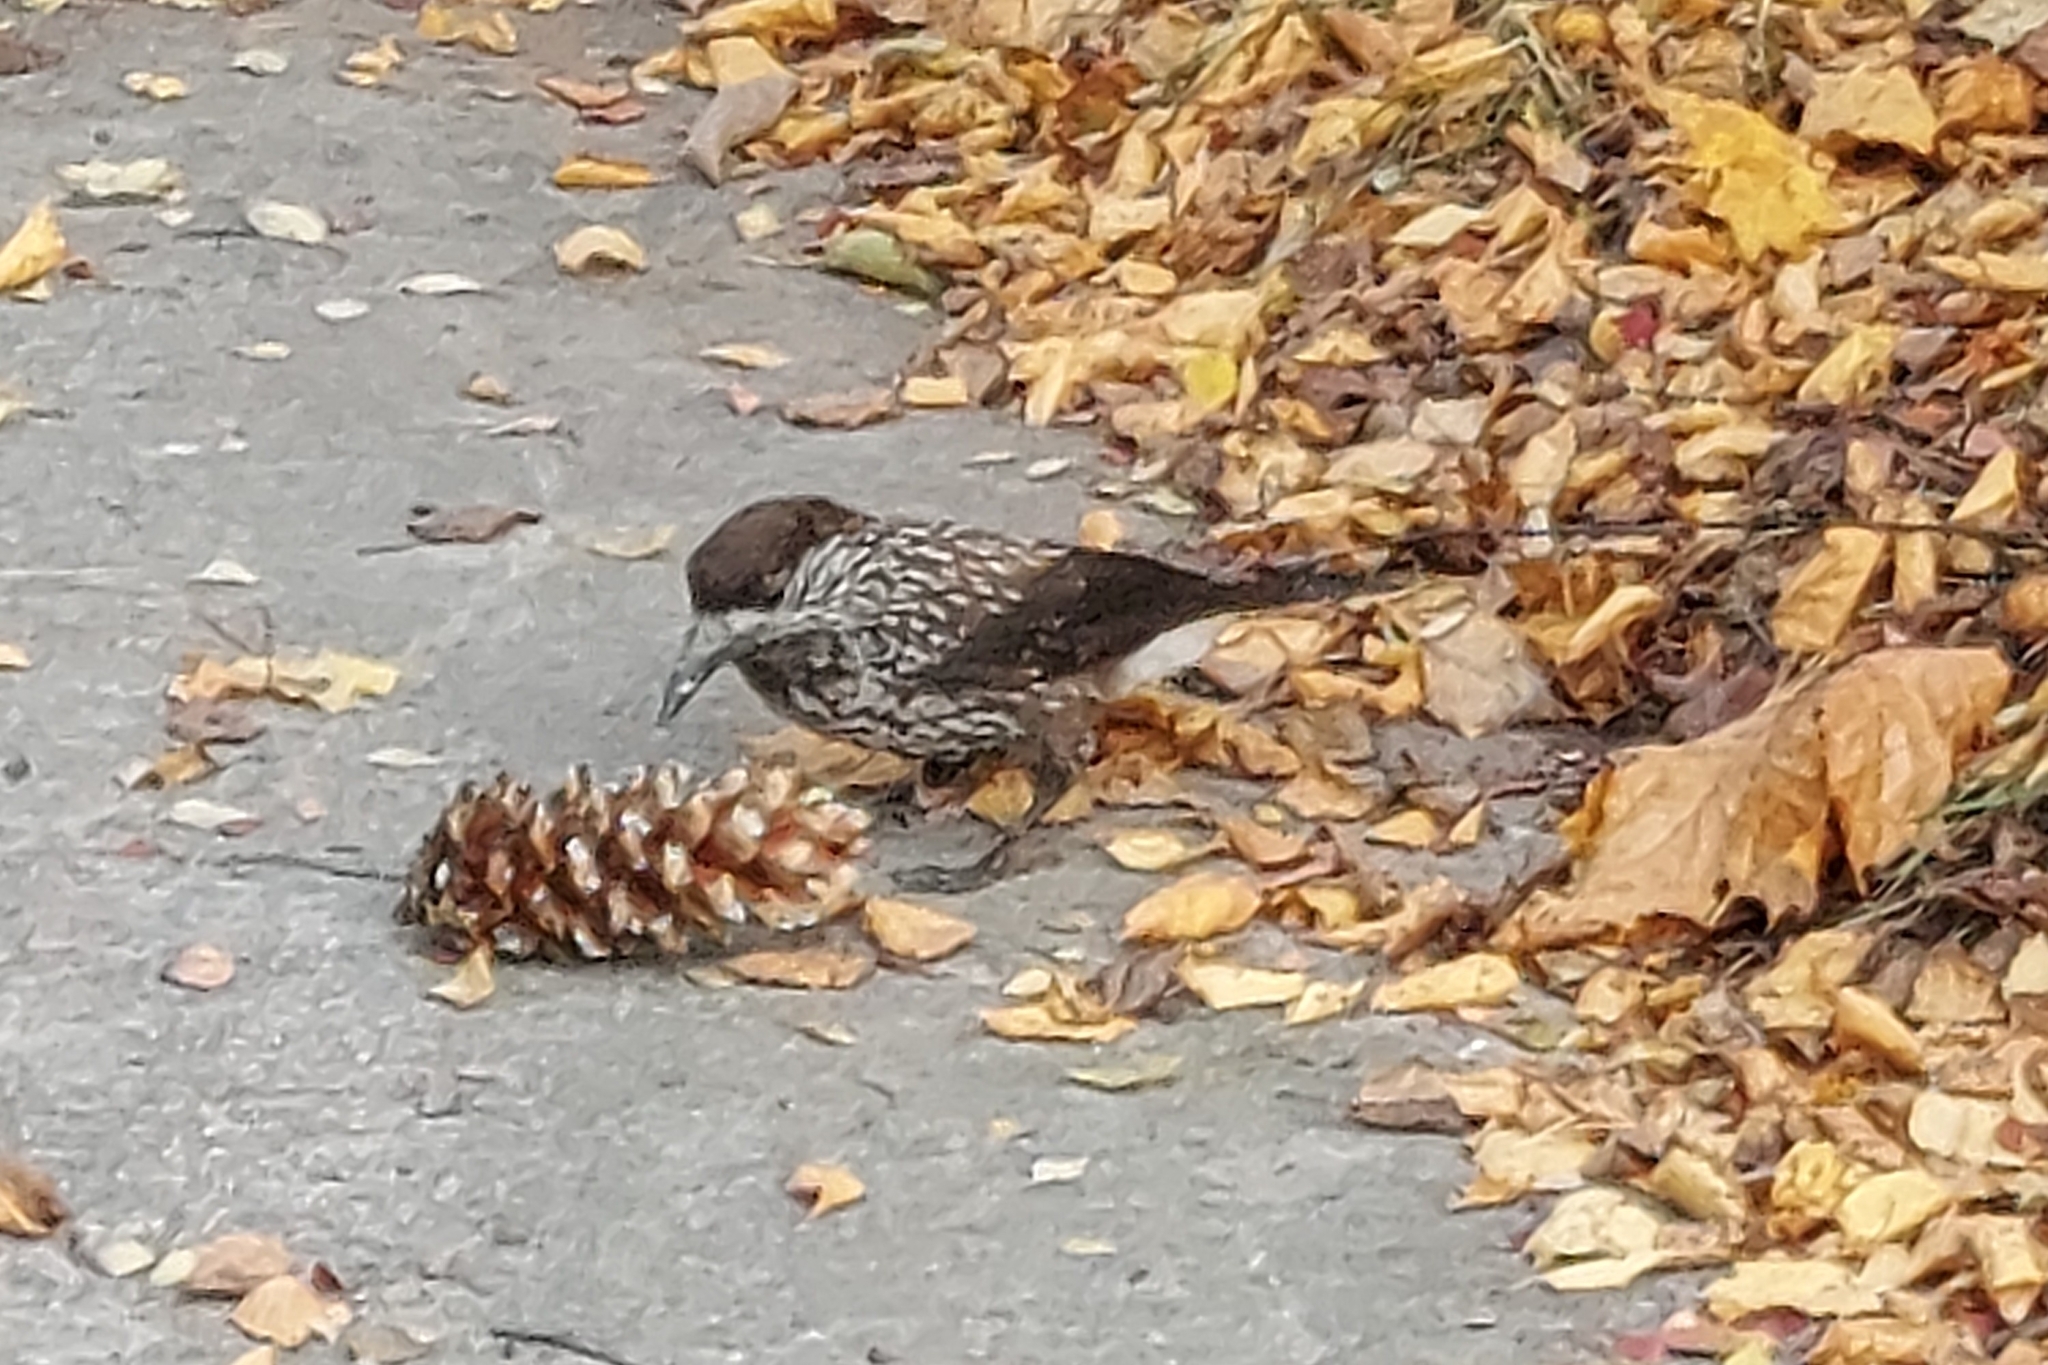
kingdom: Animalia
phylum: Chordata
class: Aves
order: Passeriformes
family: Corvidae
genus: Nucifraga
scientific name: Nucifraga caryocatactes
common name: Spotted nutcracker
